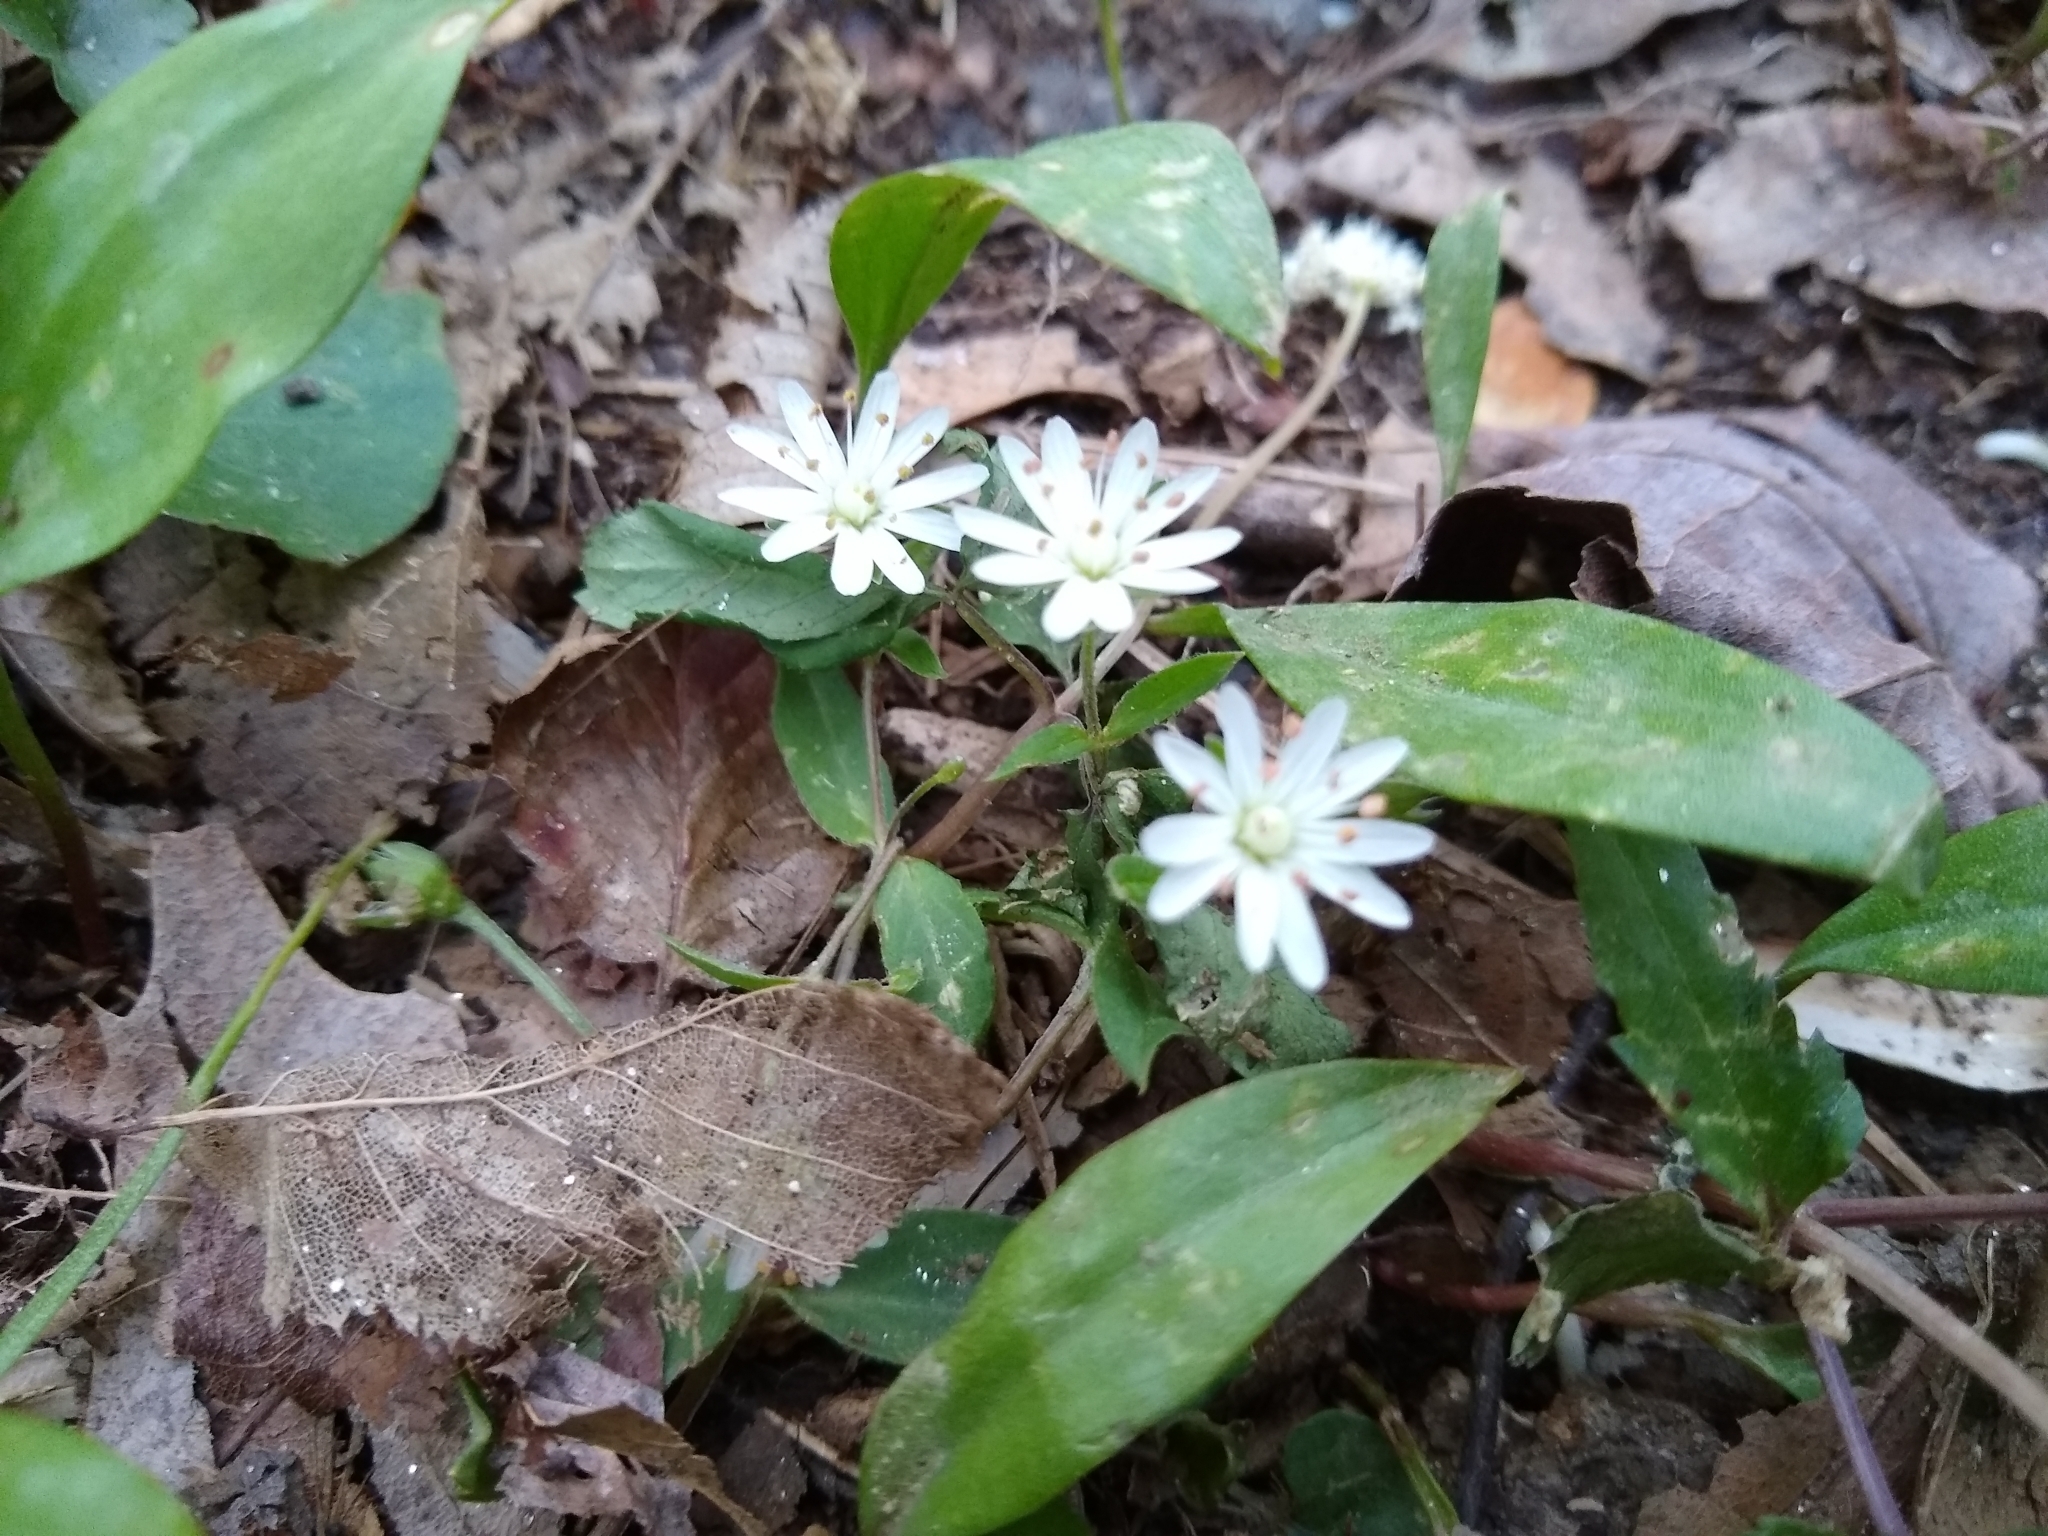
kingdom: Plantae
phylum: Tracheophyta
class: Magnoliopsida
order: Caryophyllales
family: Caryophyllaceae
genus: Stellaria
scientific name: Stellaria pubera
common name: Star chickweed
